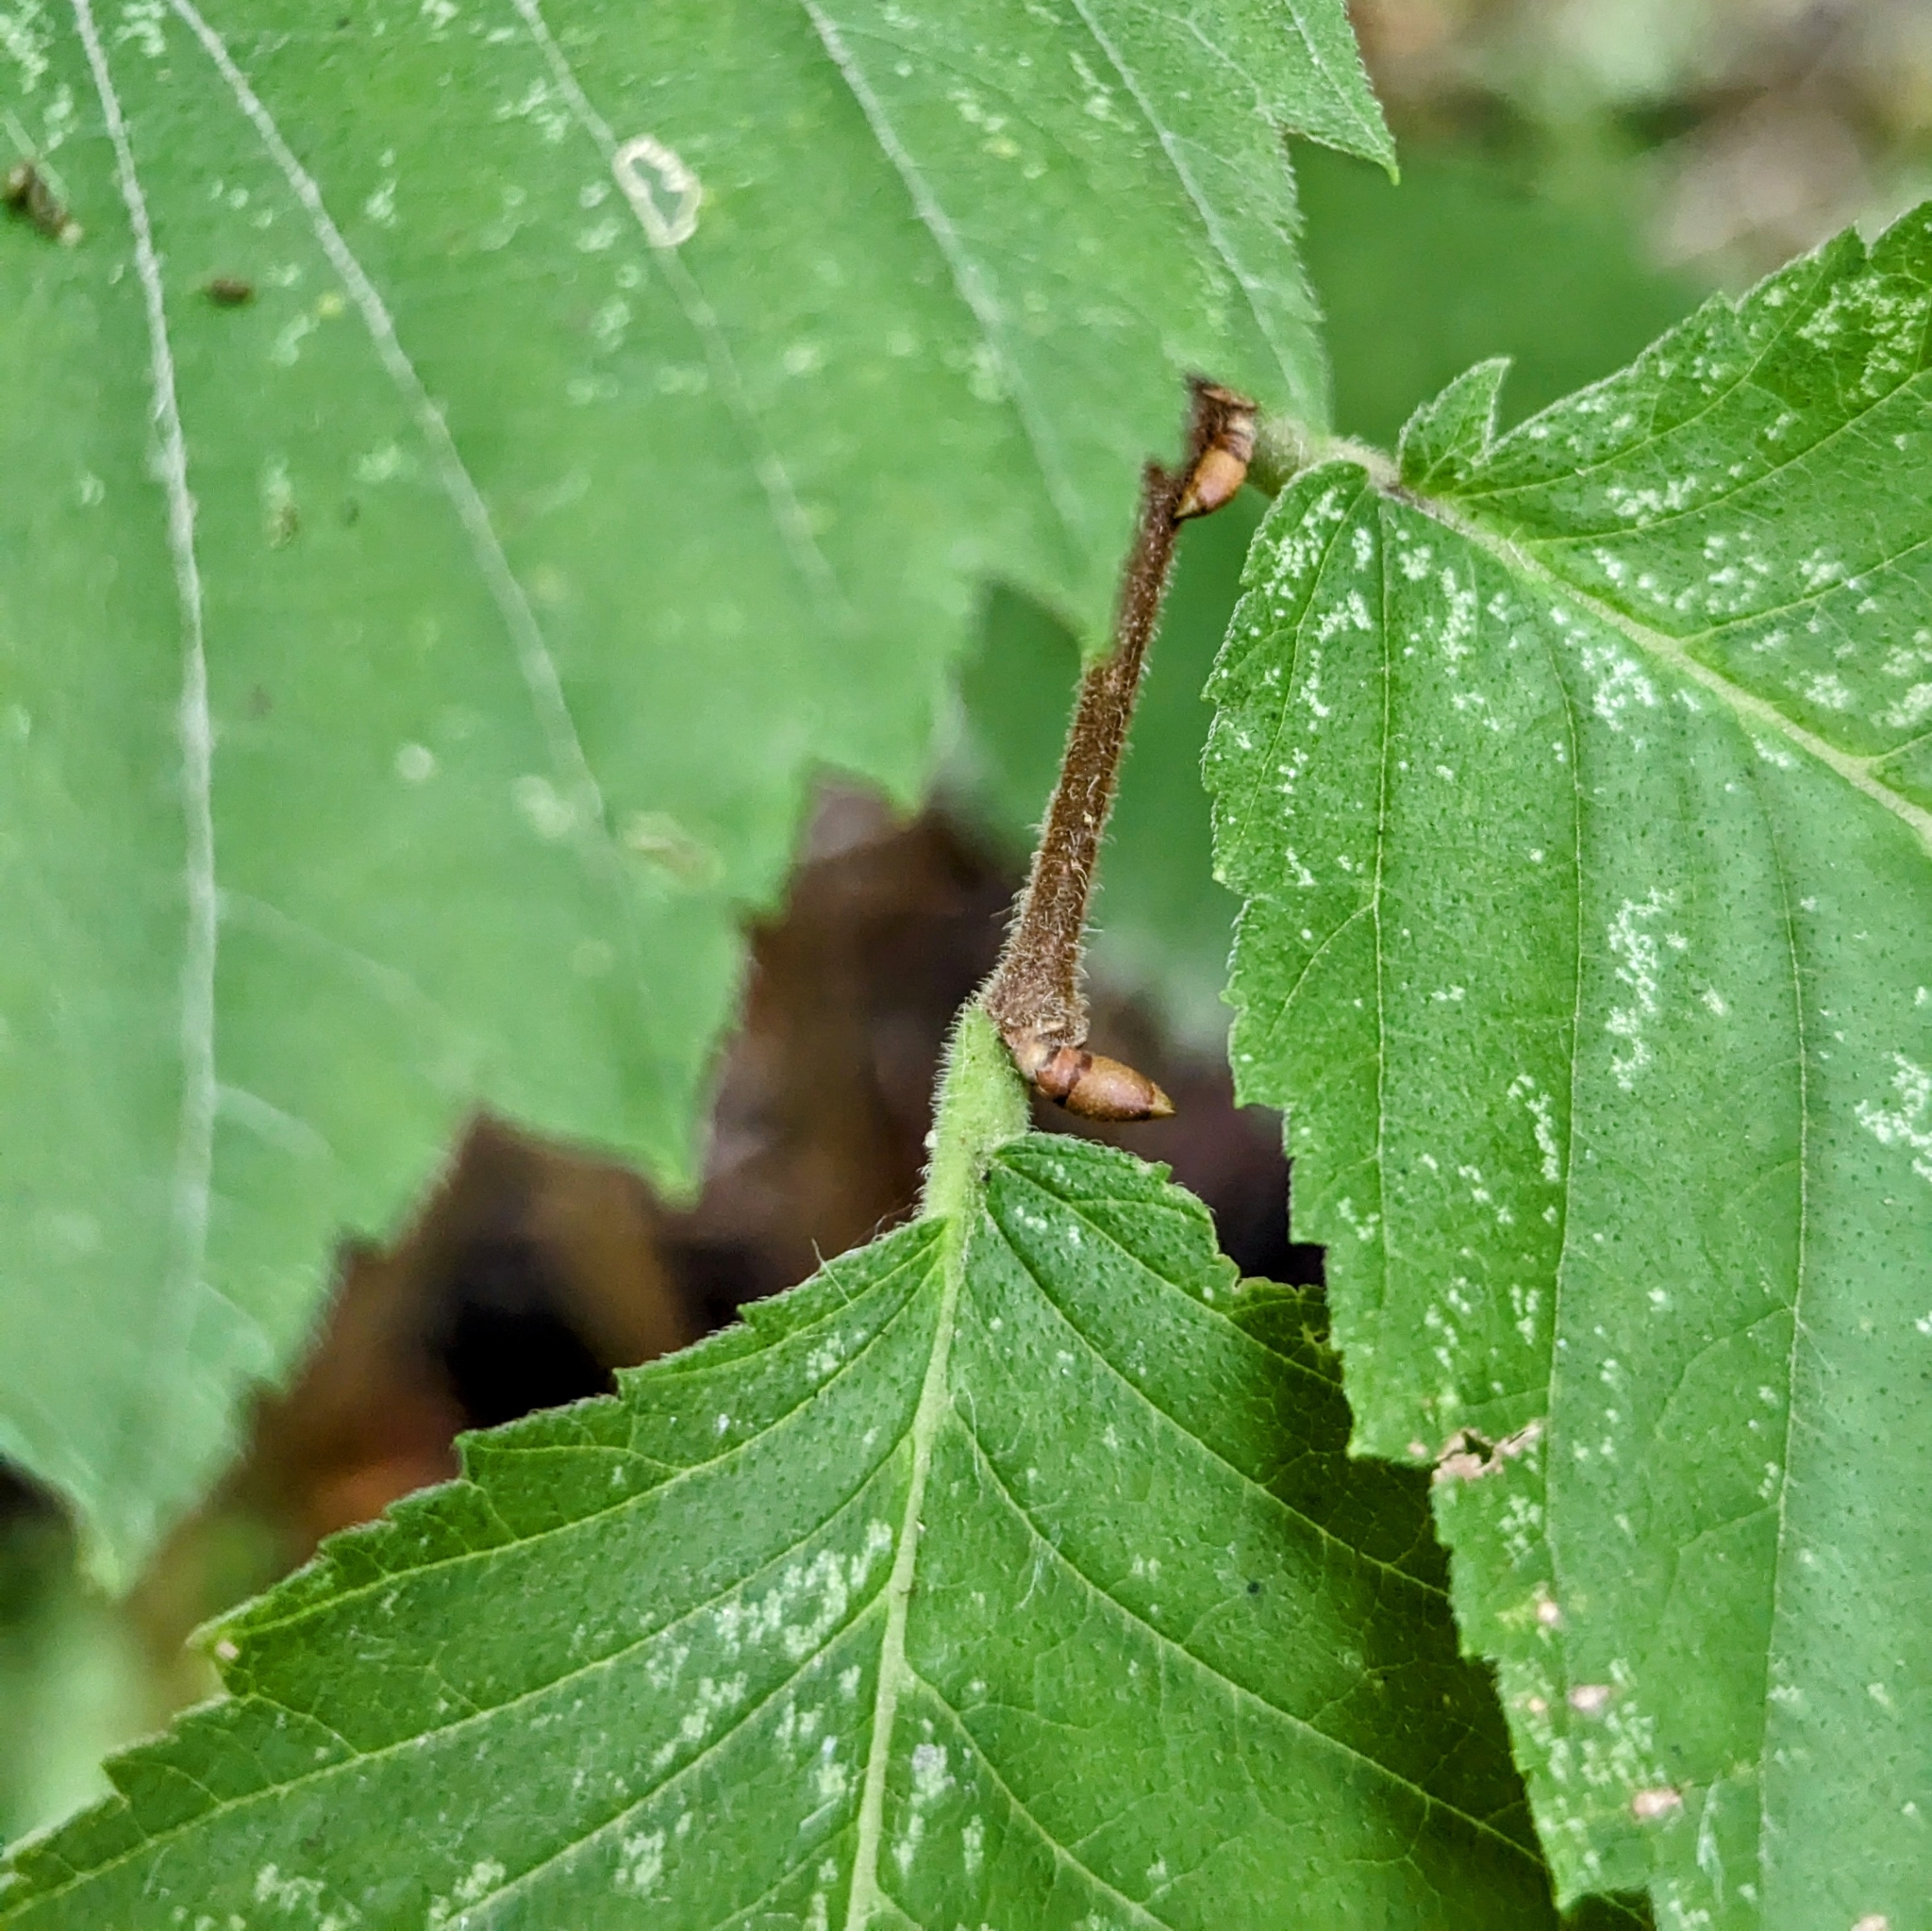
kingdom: Plantae
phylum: Tracheophyta
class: Magnoliopsida
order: Rosales
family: Ulmaceae
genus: Ulmus
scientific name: Ulmus americana
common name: American elm
